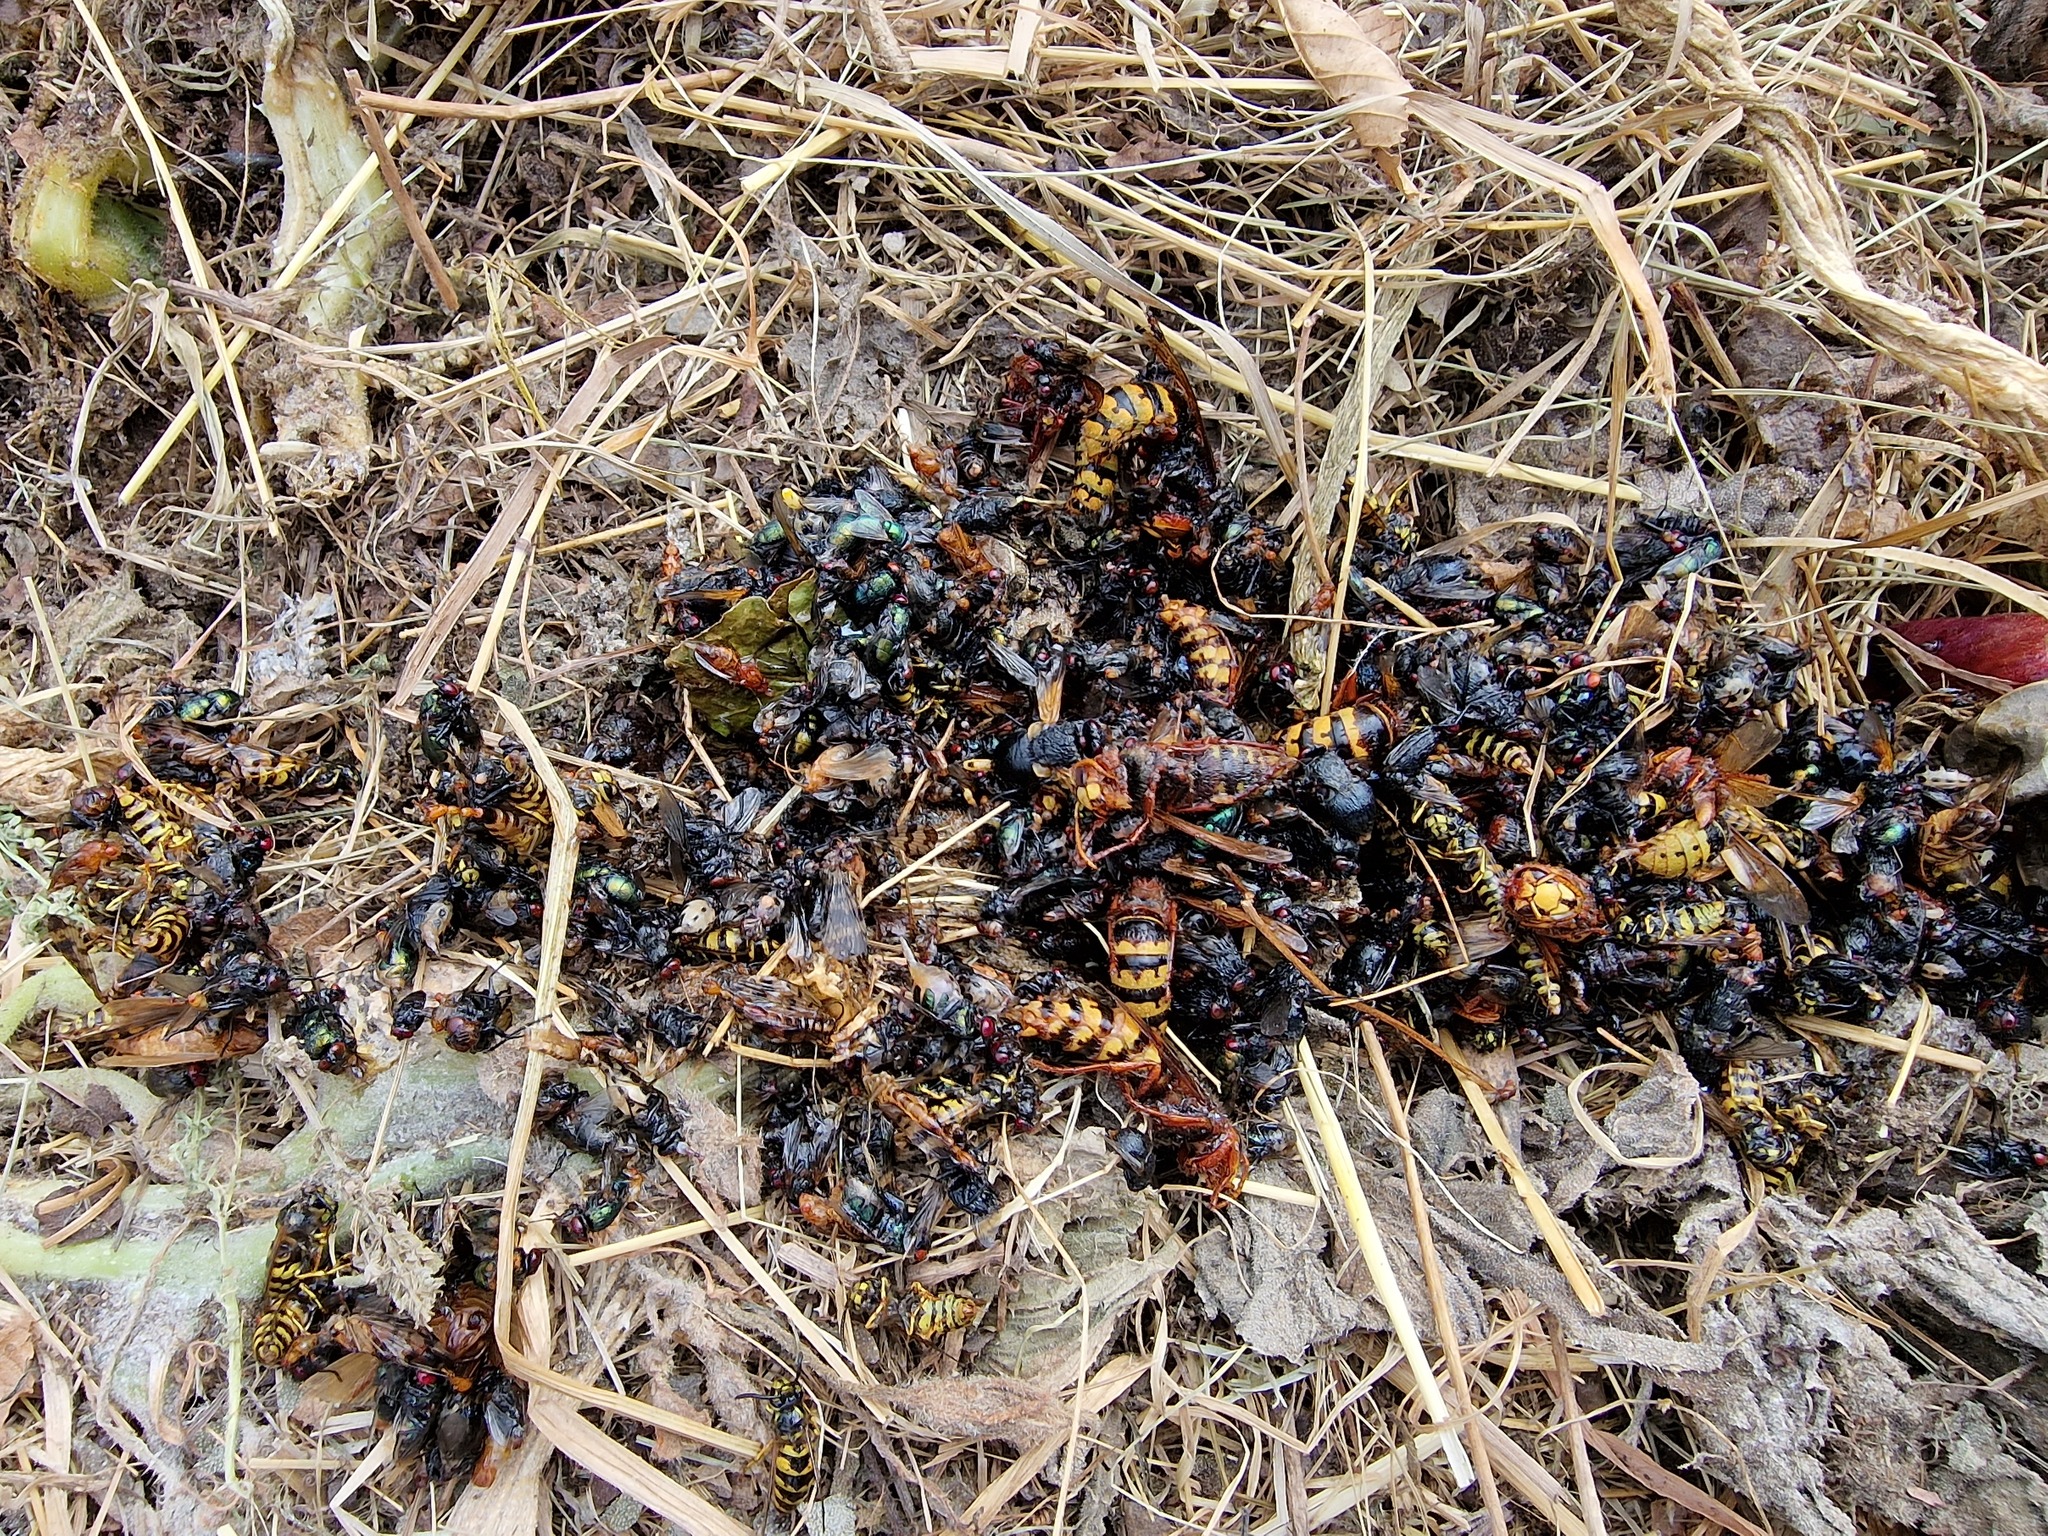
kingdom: Animalia
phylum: Arthropoda
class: Insecta
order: Hymenoptera
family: Vespidae
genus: Vespa
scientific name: Vespa crabro
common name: Hornet
